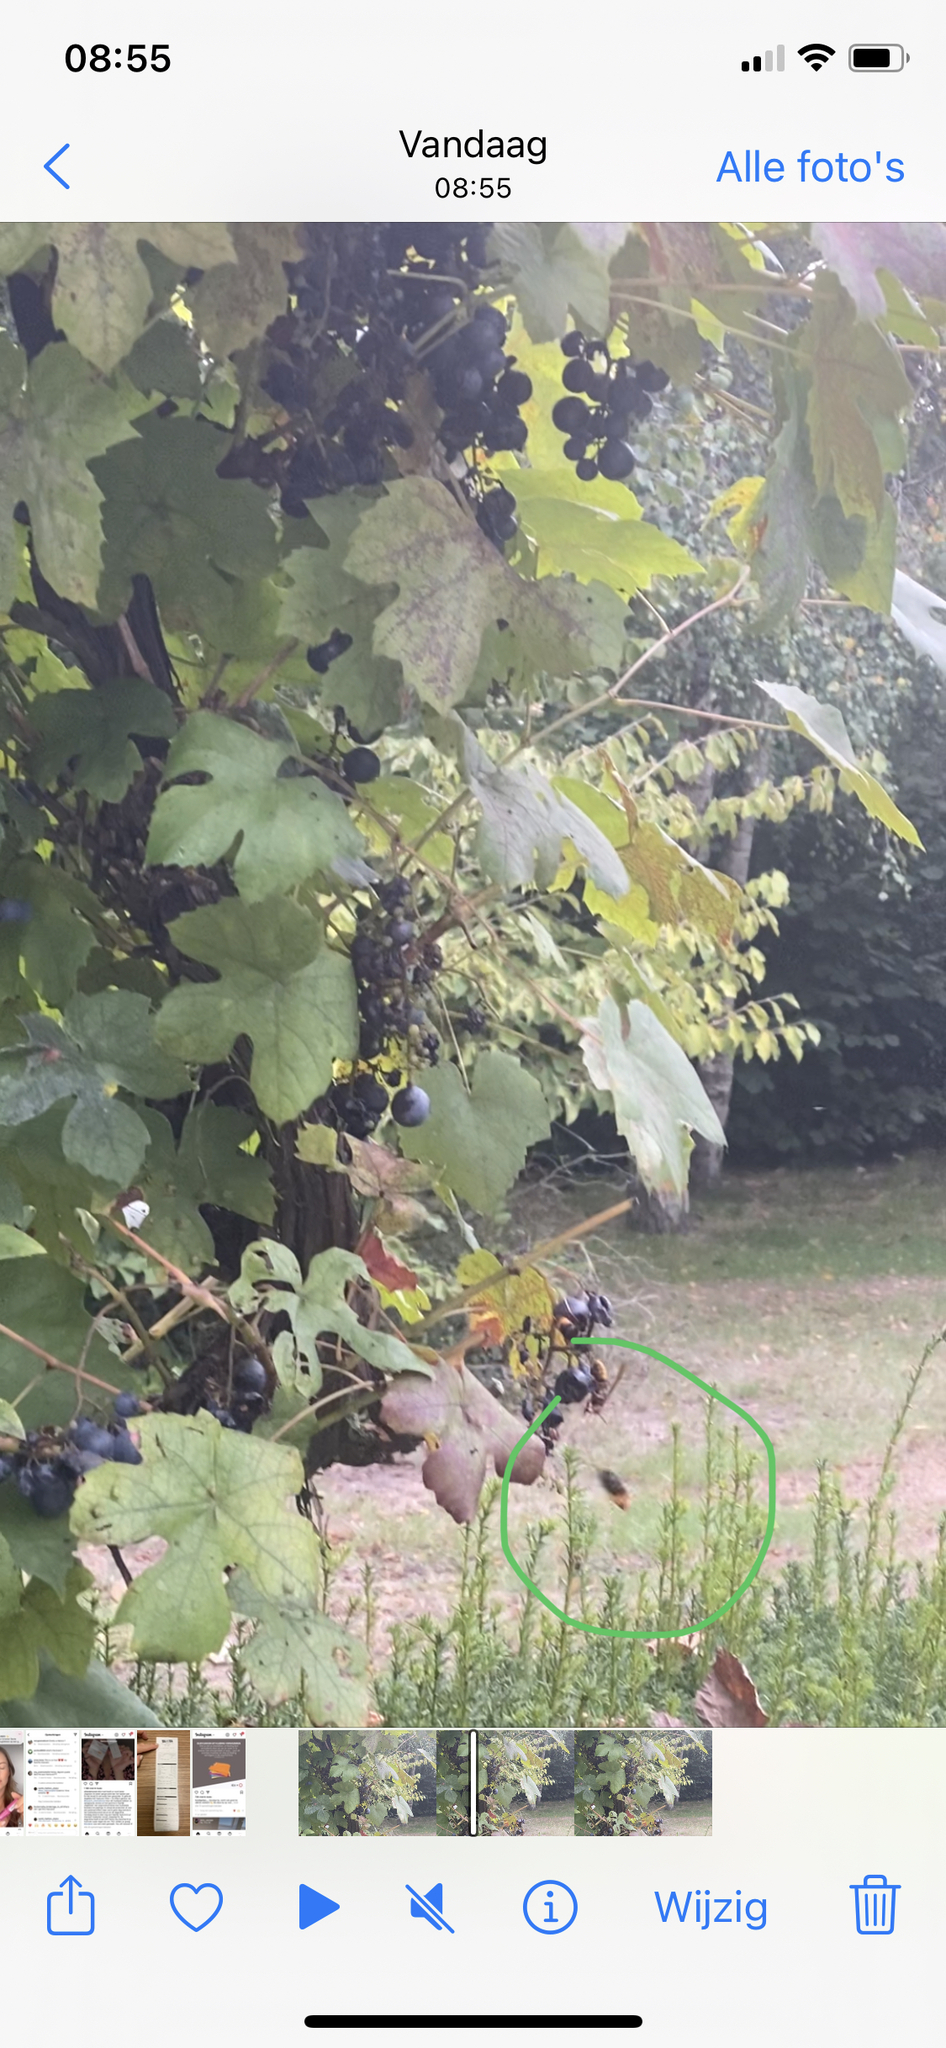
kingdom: Animalia
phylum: Arthropoda
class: Insecta
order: Hymenoptera
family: Vespidae
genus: Vespa
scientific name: Vespa velutina
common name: Asian hornet
